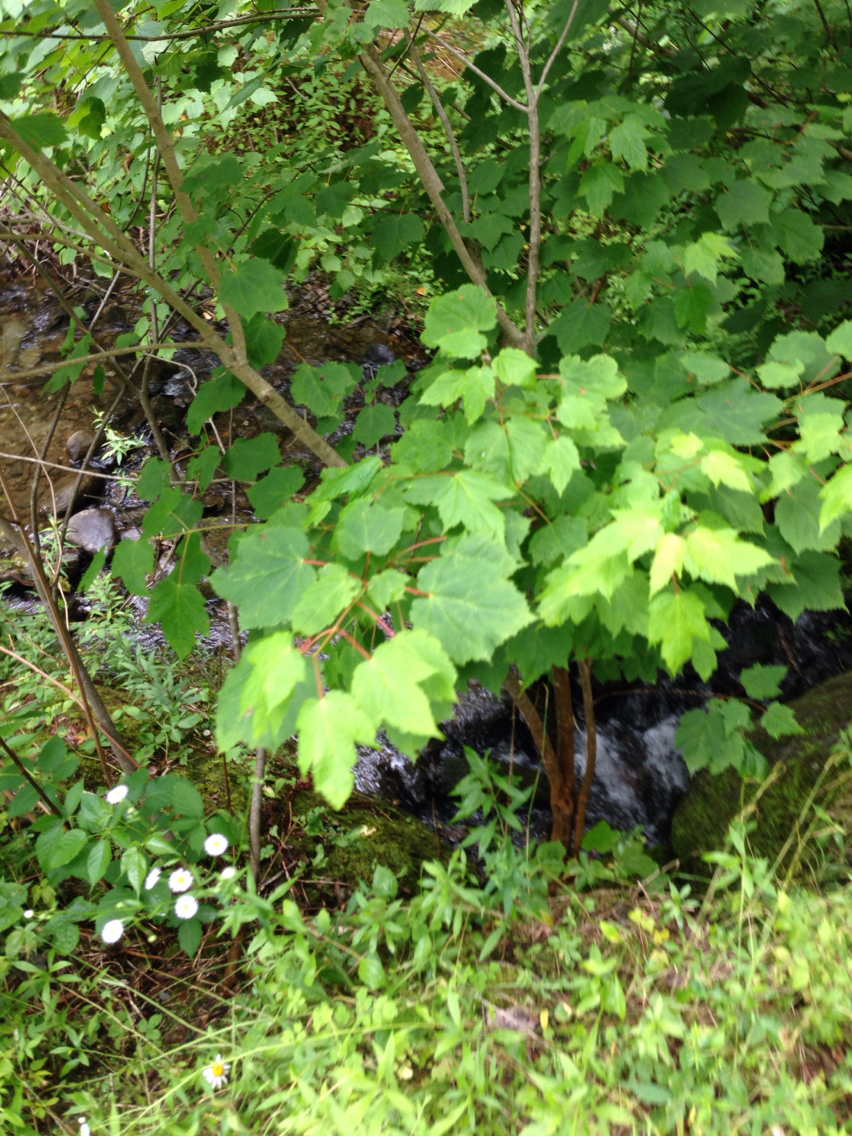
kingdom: Plantae
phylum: Tracheophyta
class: Magnoliopsida
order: Sapindales
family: Sapindaceae
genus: Acer
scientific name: Acer rubrum
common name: Red maple
